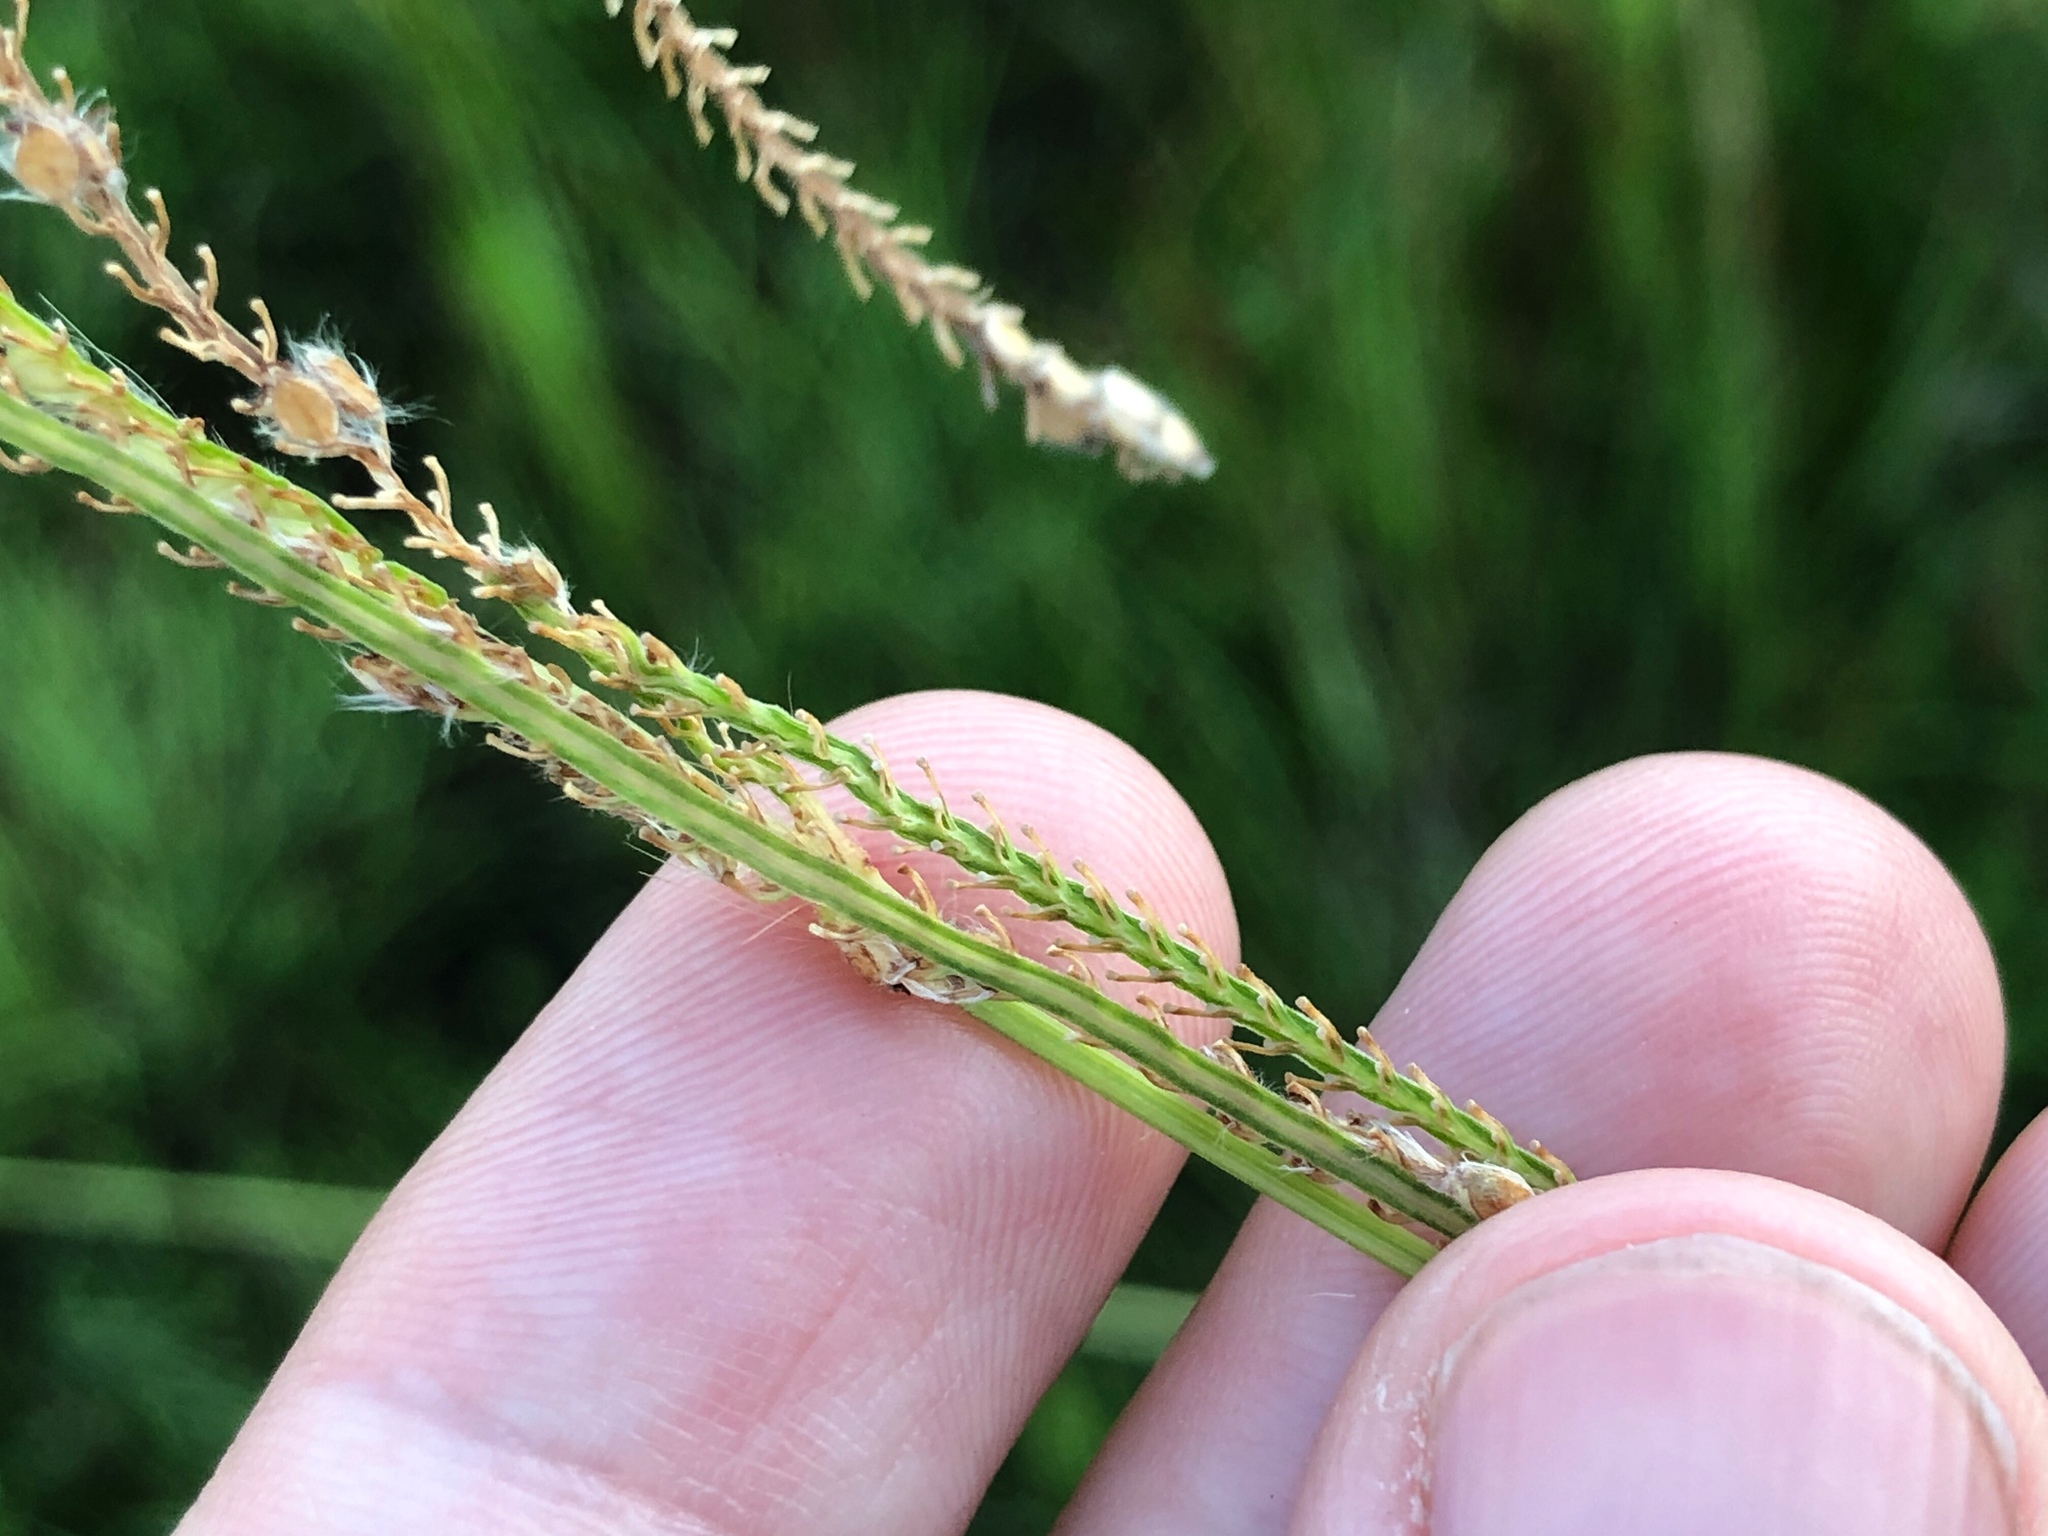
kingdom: Plantae
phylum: Tracheophyta
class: Liliopsida
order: Poales
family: Poaceae
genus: Paspalum
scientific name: Paspalum urvillei
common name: Vasey's grass
